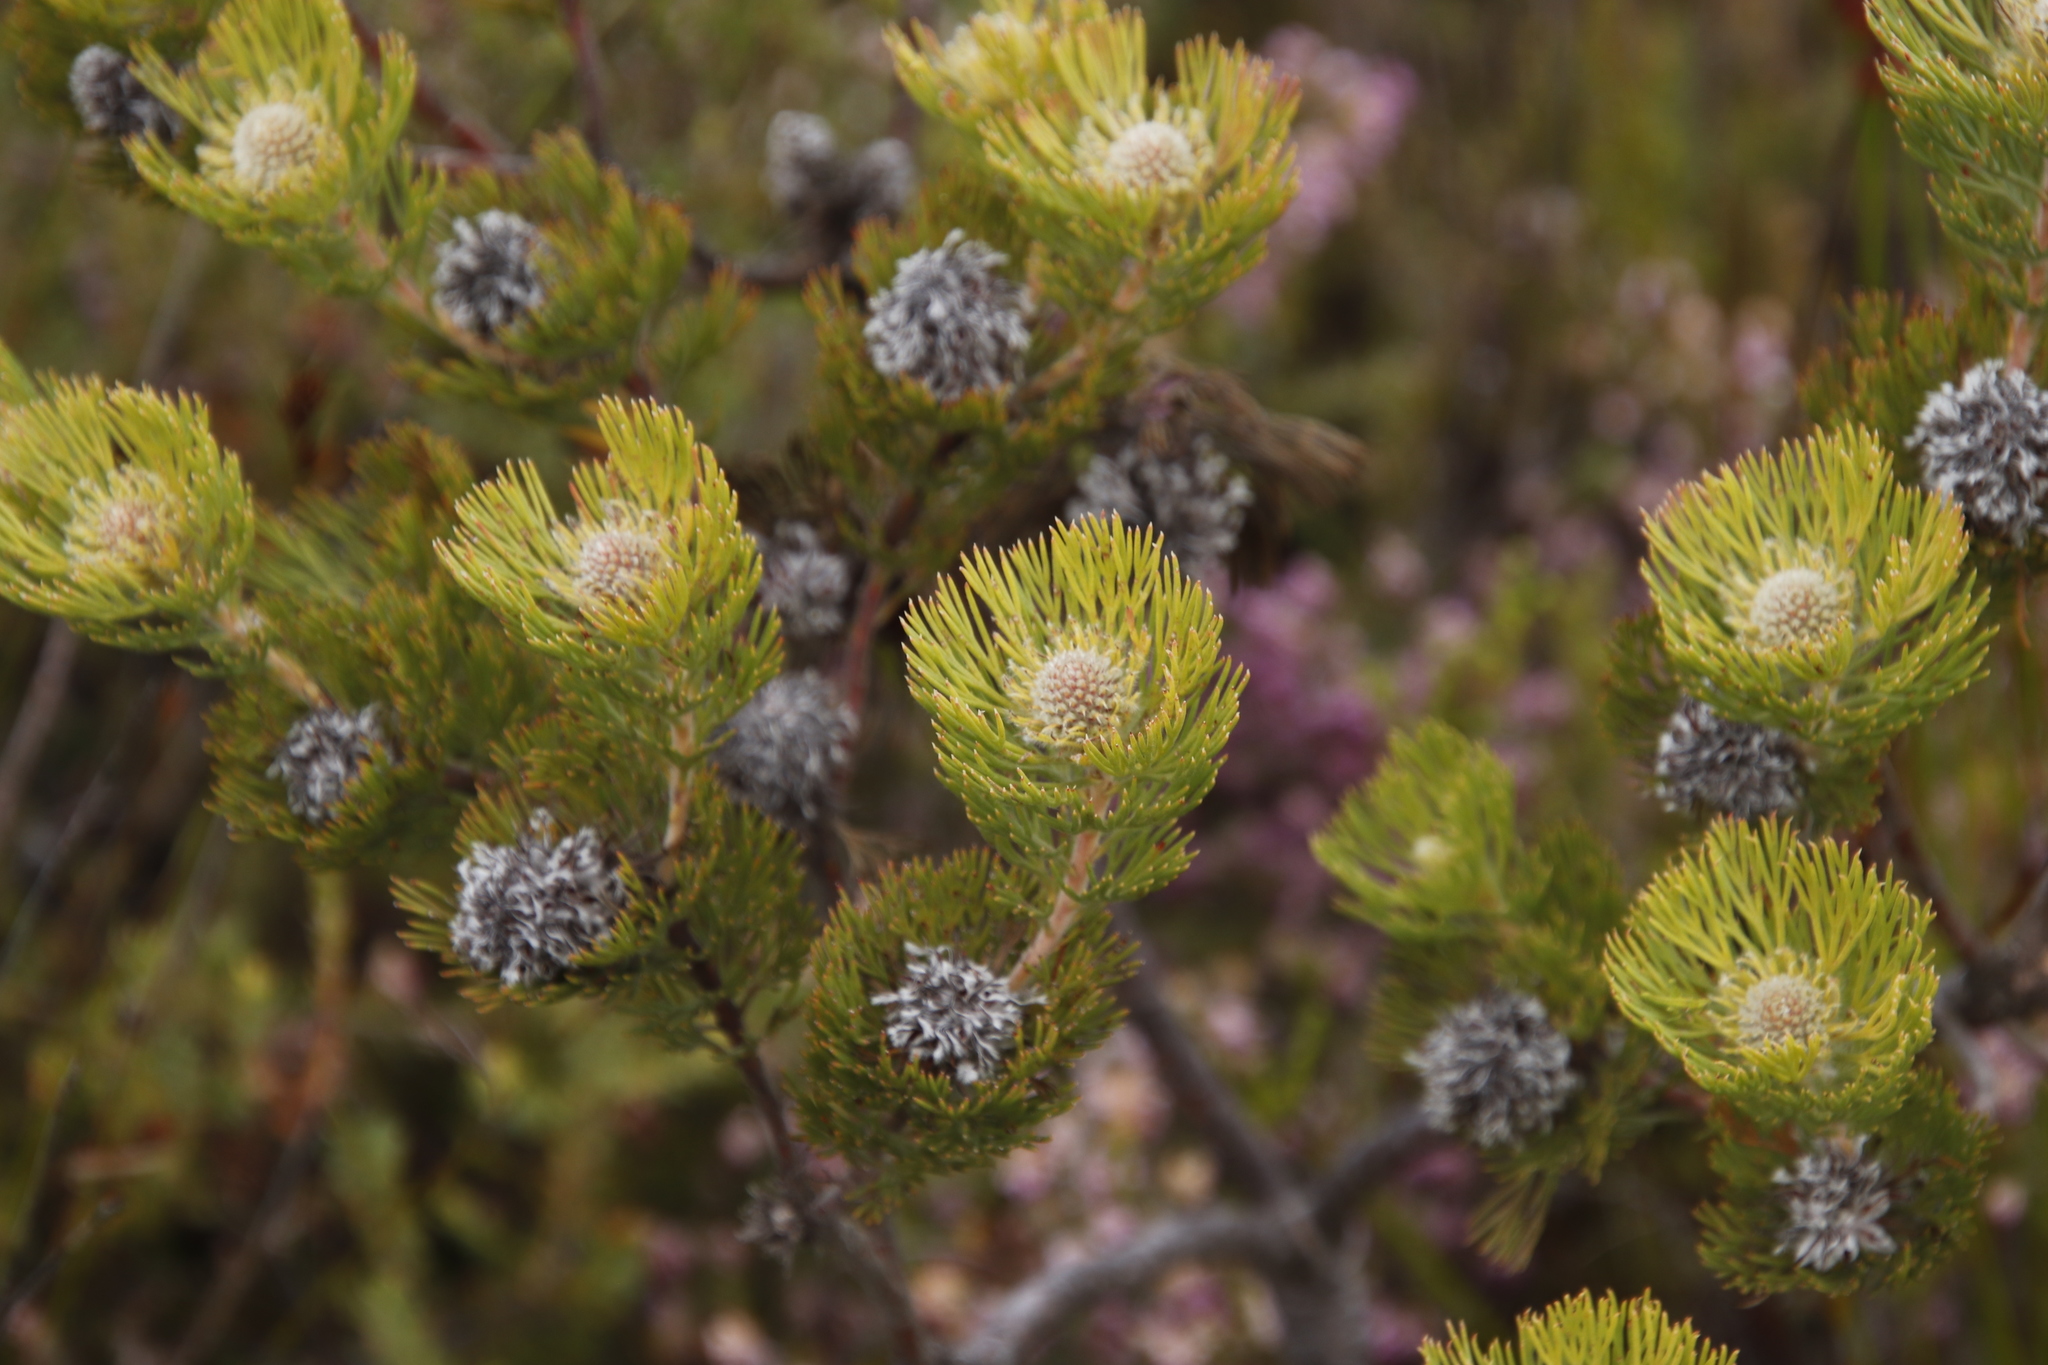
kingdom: Plantae
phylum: Tracheophyta
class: Magnoliopsida
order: Proteales
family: Proteaceae
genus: Serruria
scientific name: Serruria villosa
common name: Golden spiderhead
